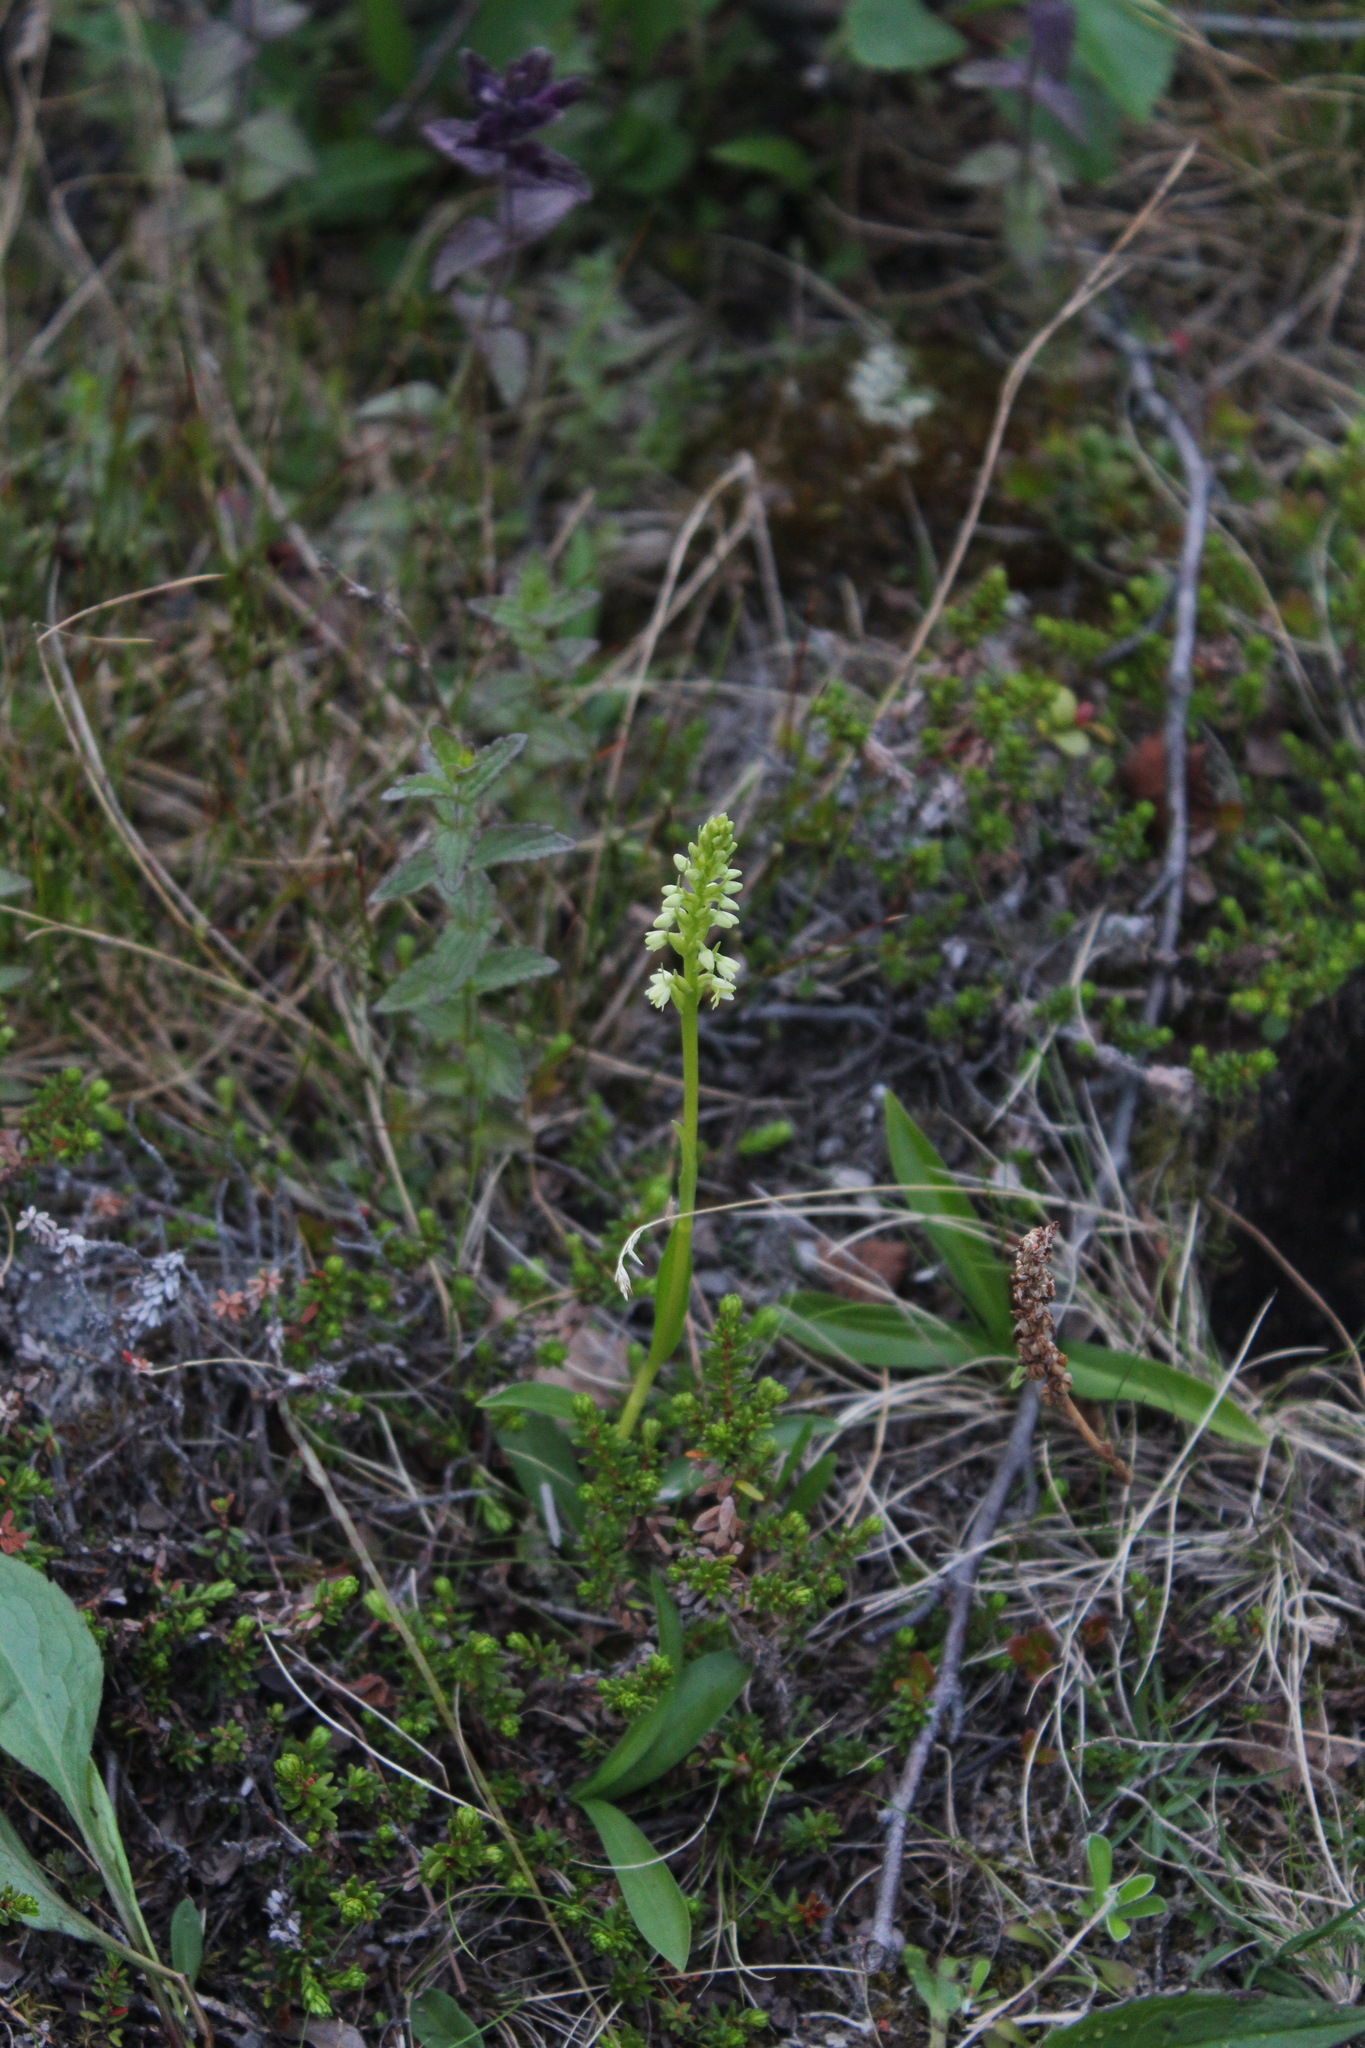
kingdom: Plantae
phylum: Tracheophyta
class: Liliopsida
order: Asparagales
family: Orchidaceae
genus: Pseudorchis
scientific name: Pseudorchis albida
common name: Small-white orchid
